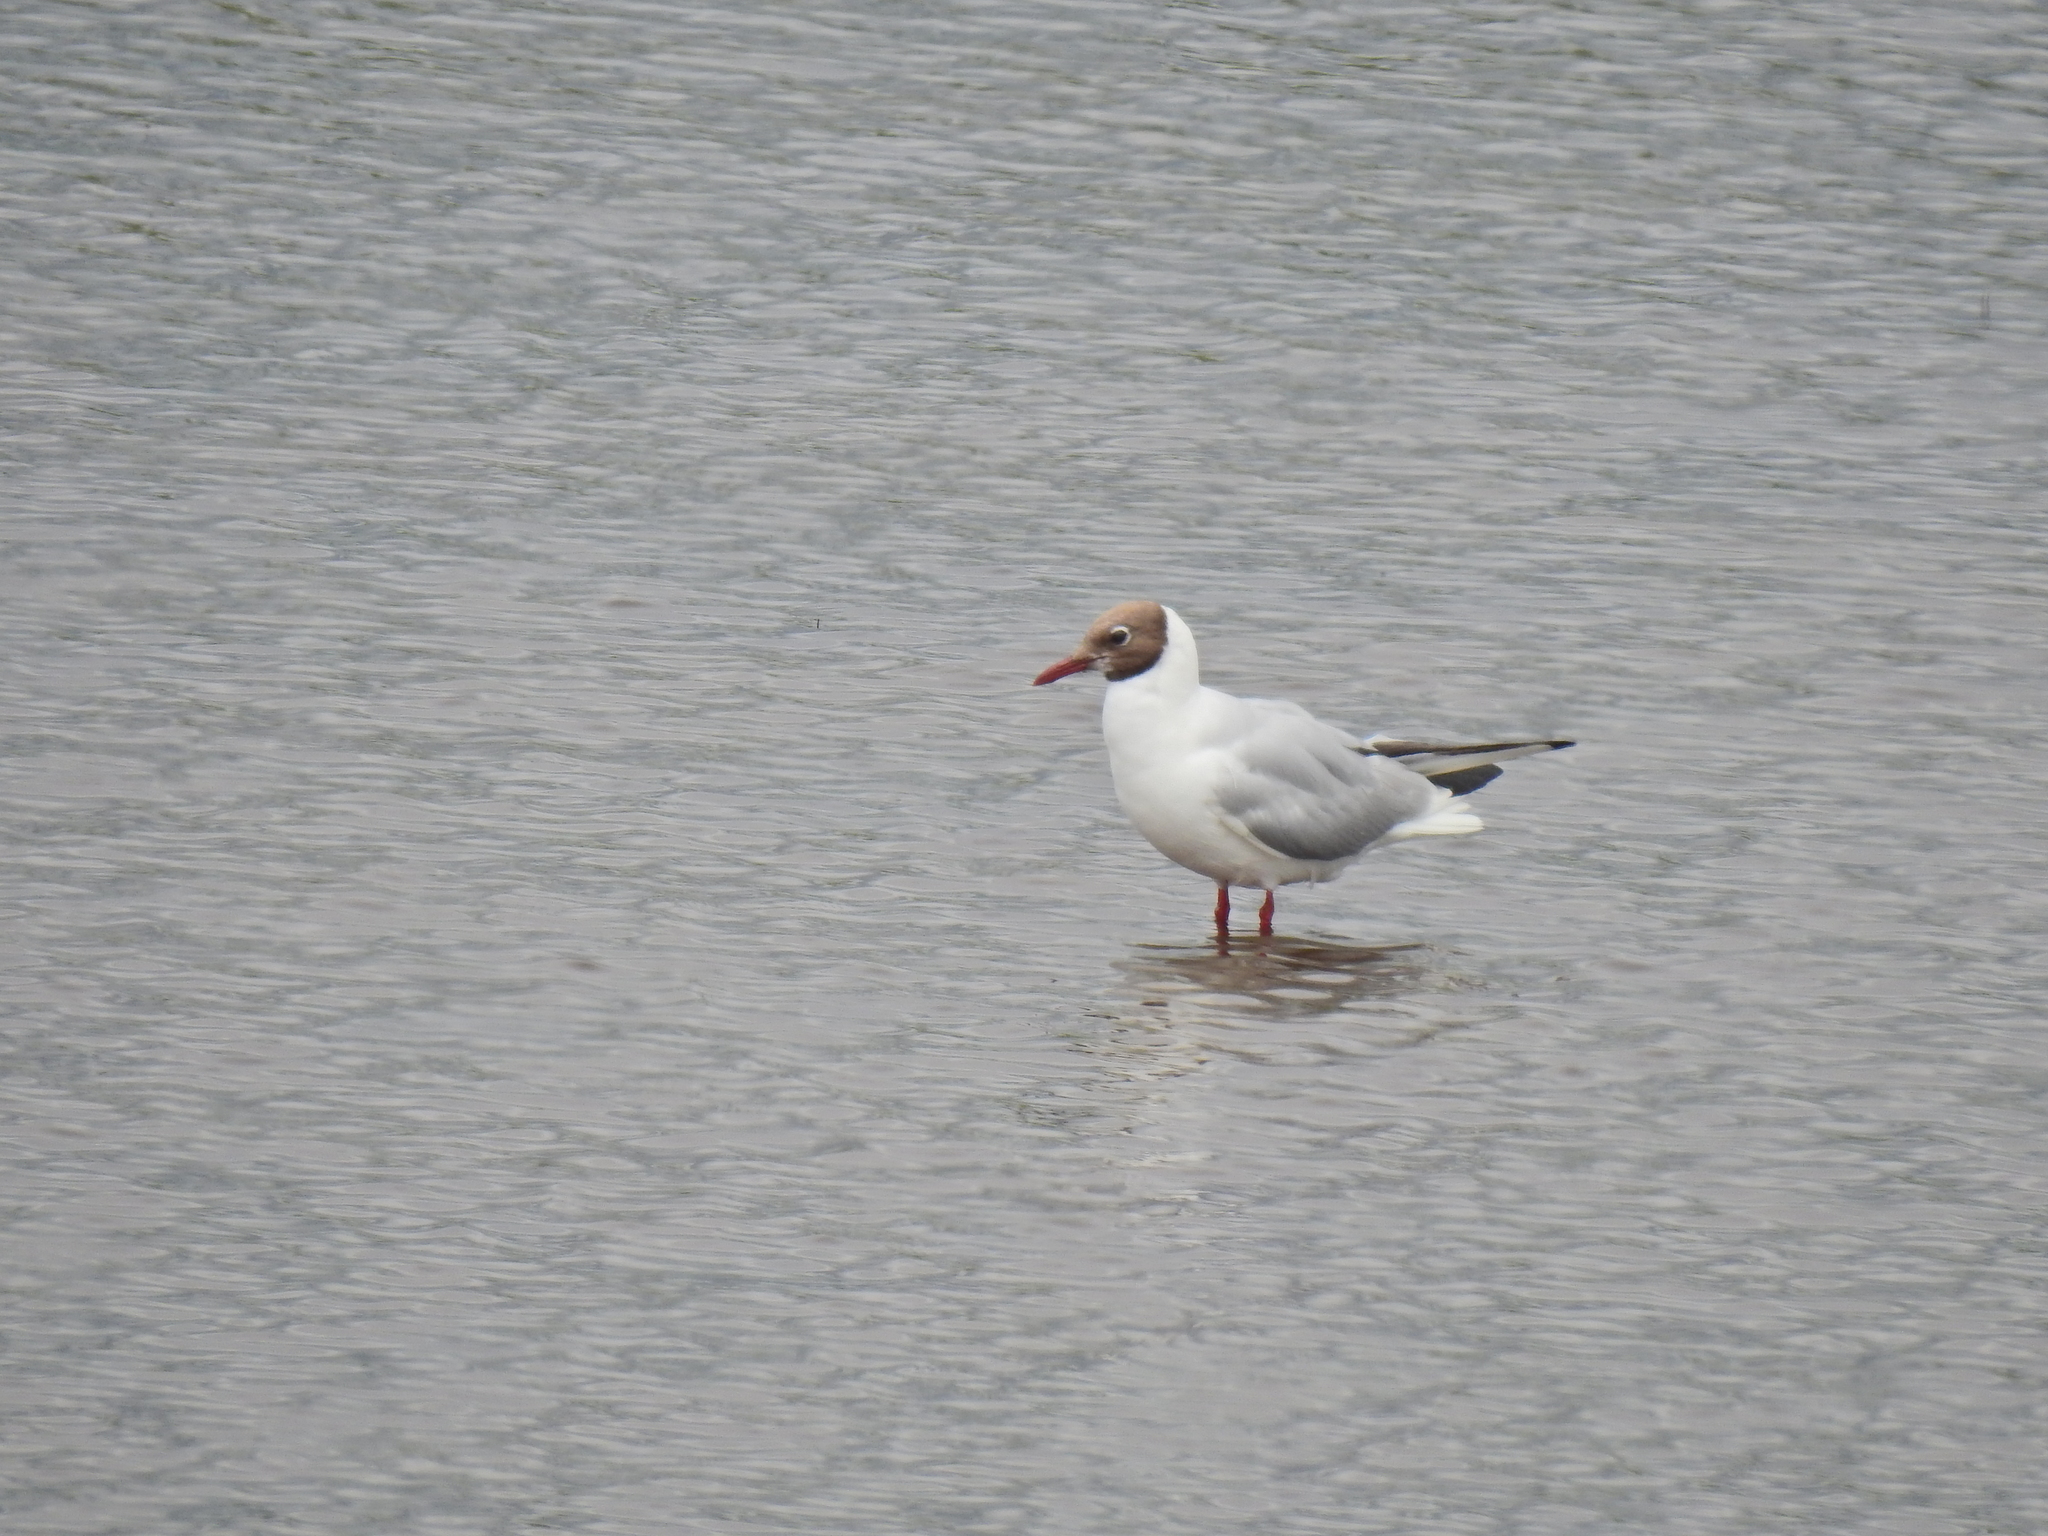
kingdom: Animalia
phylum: Chordata
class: Aves
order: Charadriiformes
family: Laridae
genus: Chroicocephalus
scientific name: Chroicocephalus ridibundus
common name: Black-headed gull
